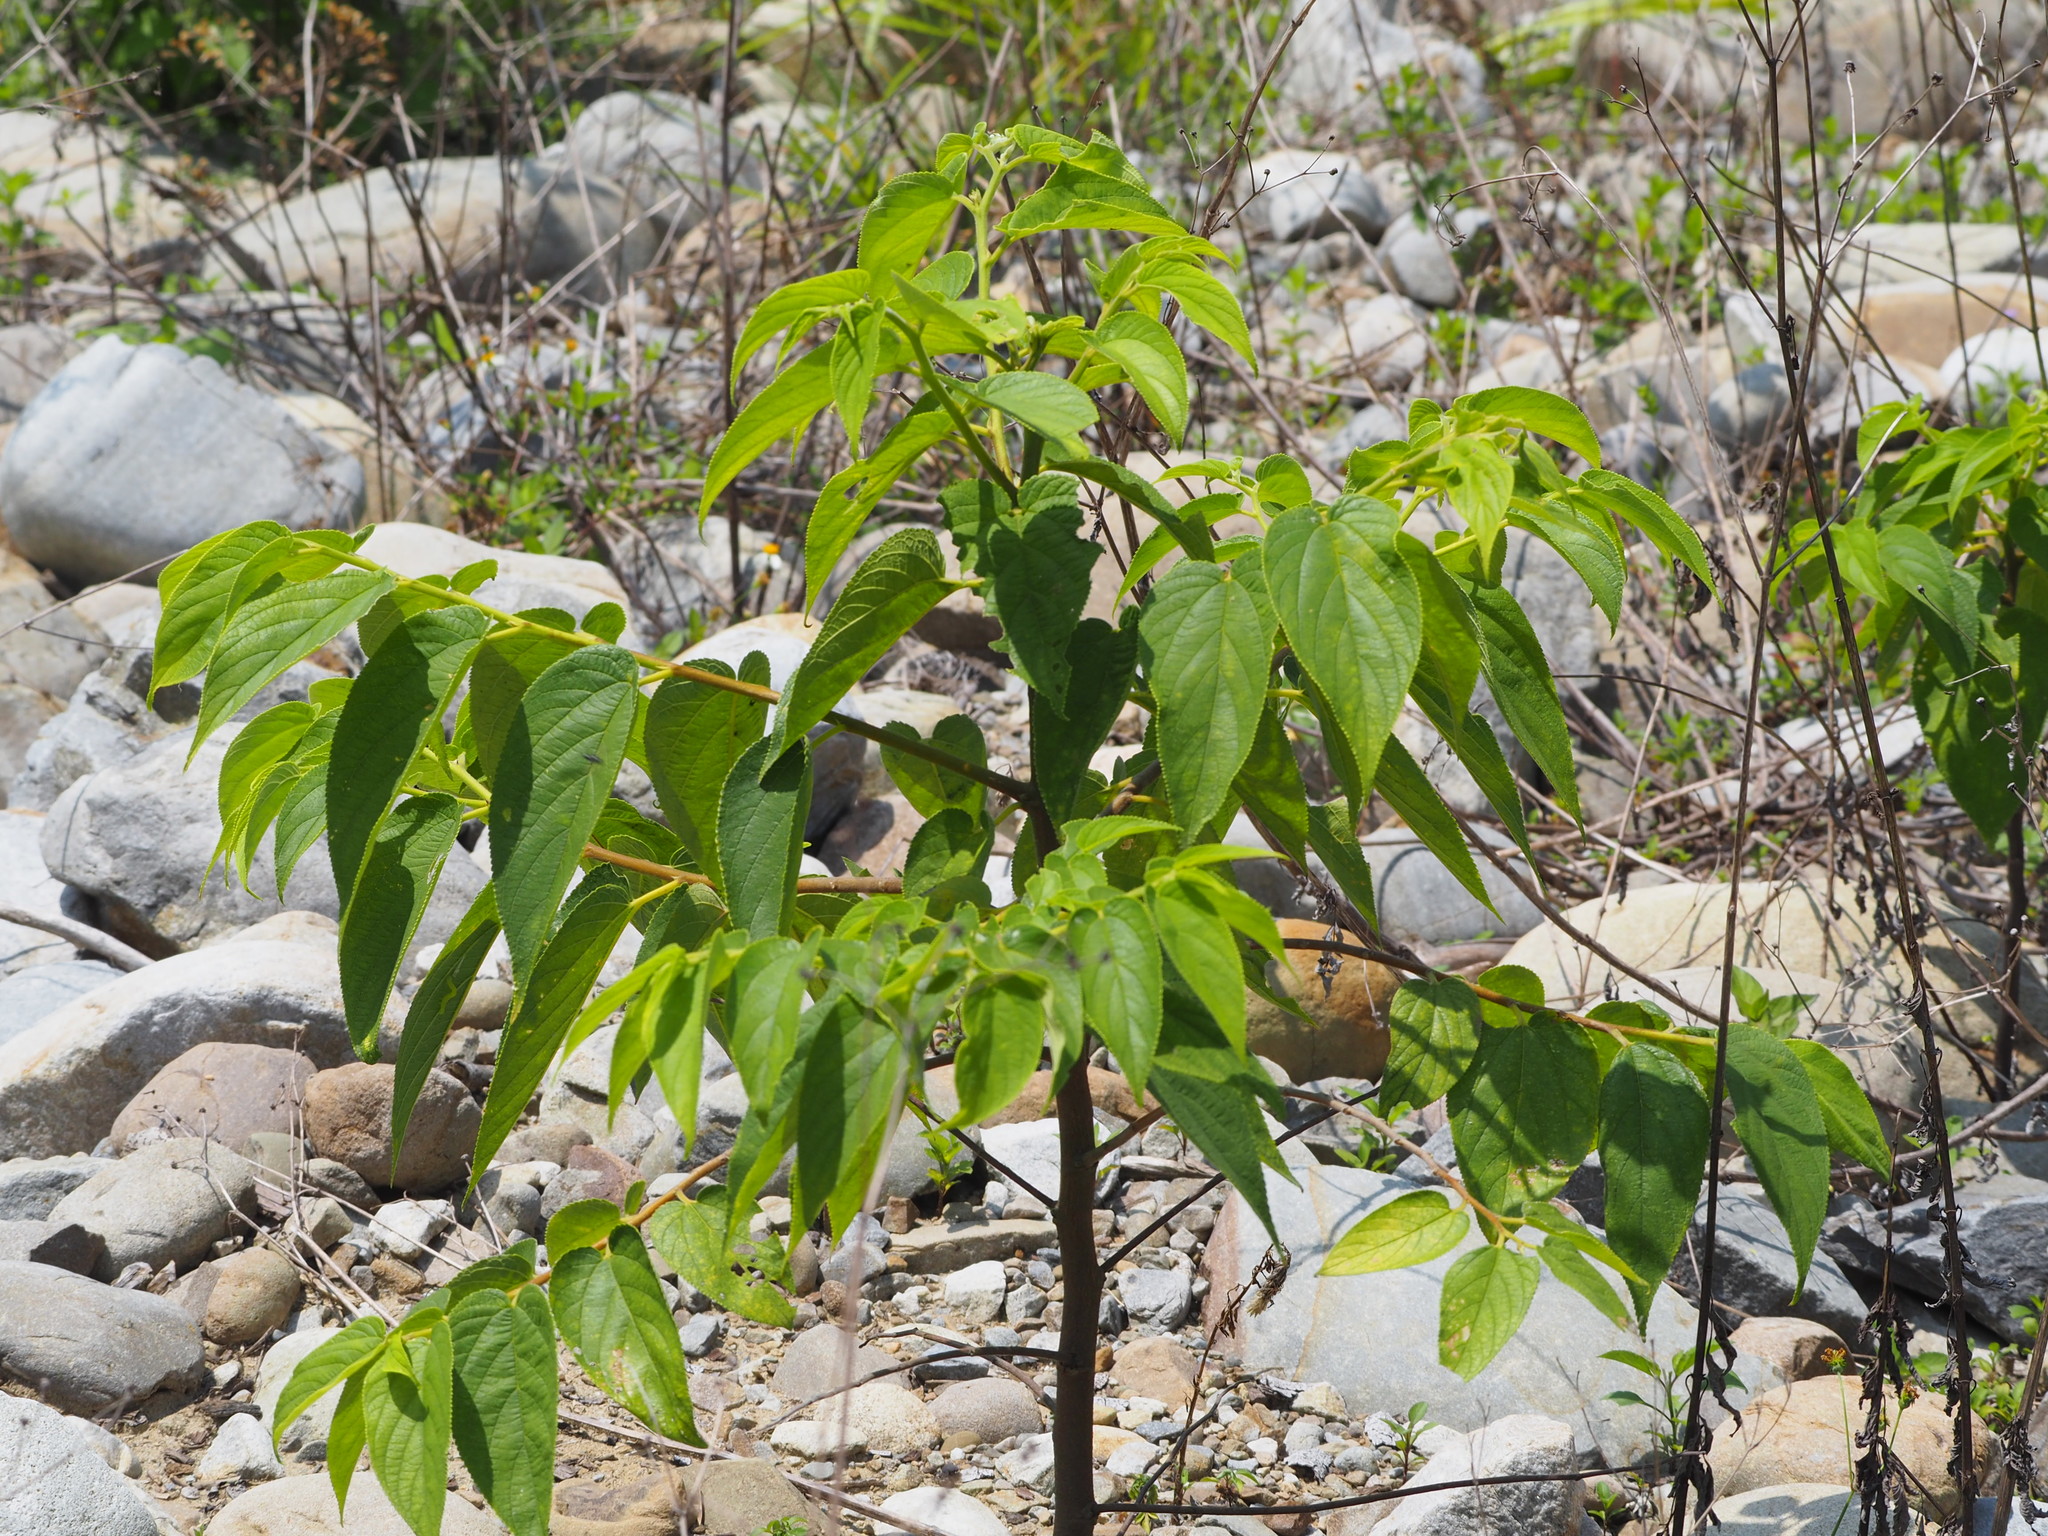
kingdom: Plantae
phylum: Tracheophyta
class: Magnoliopsida
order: Rosales
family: Cannabaceae
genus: Trema
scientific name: Trema orientale
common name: Indian charcoal tree
